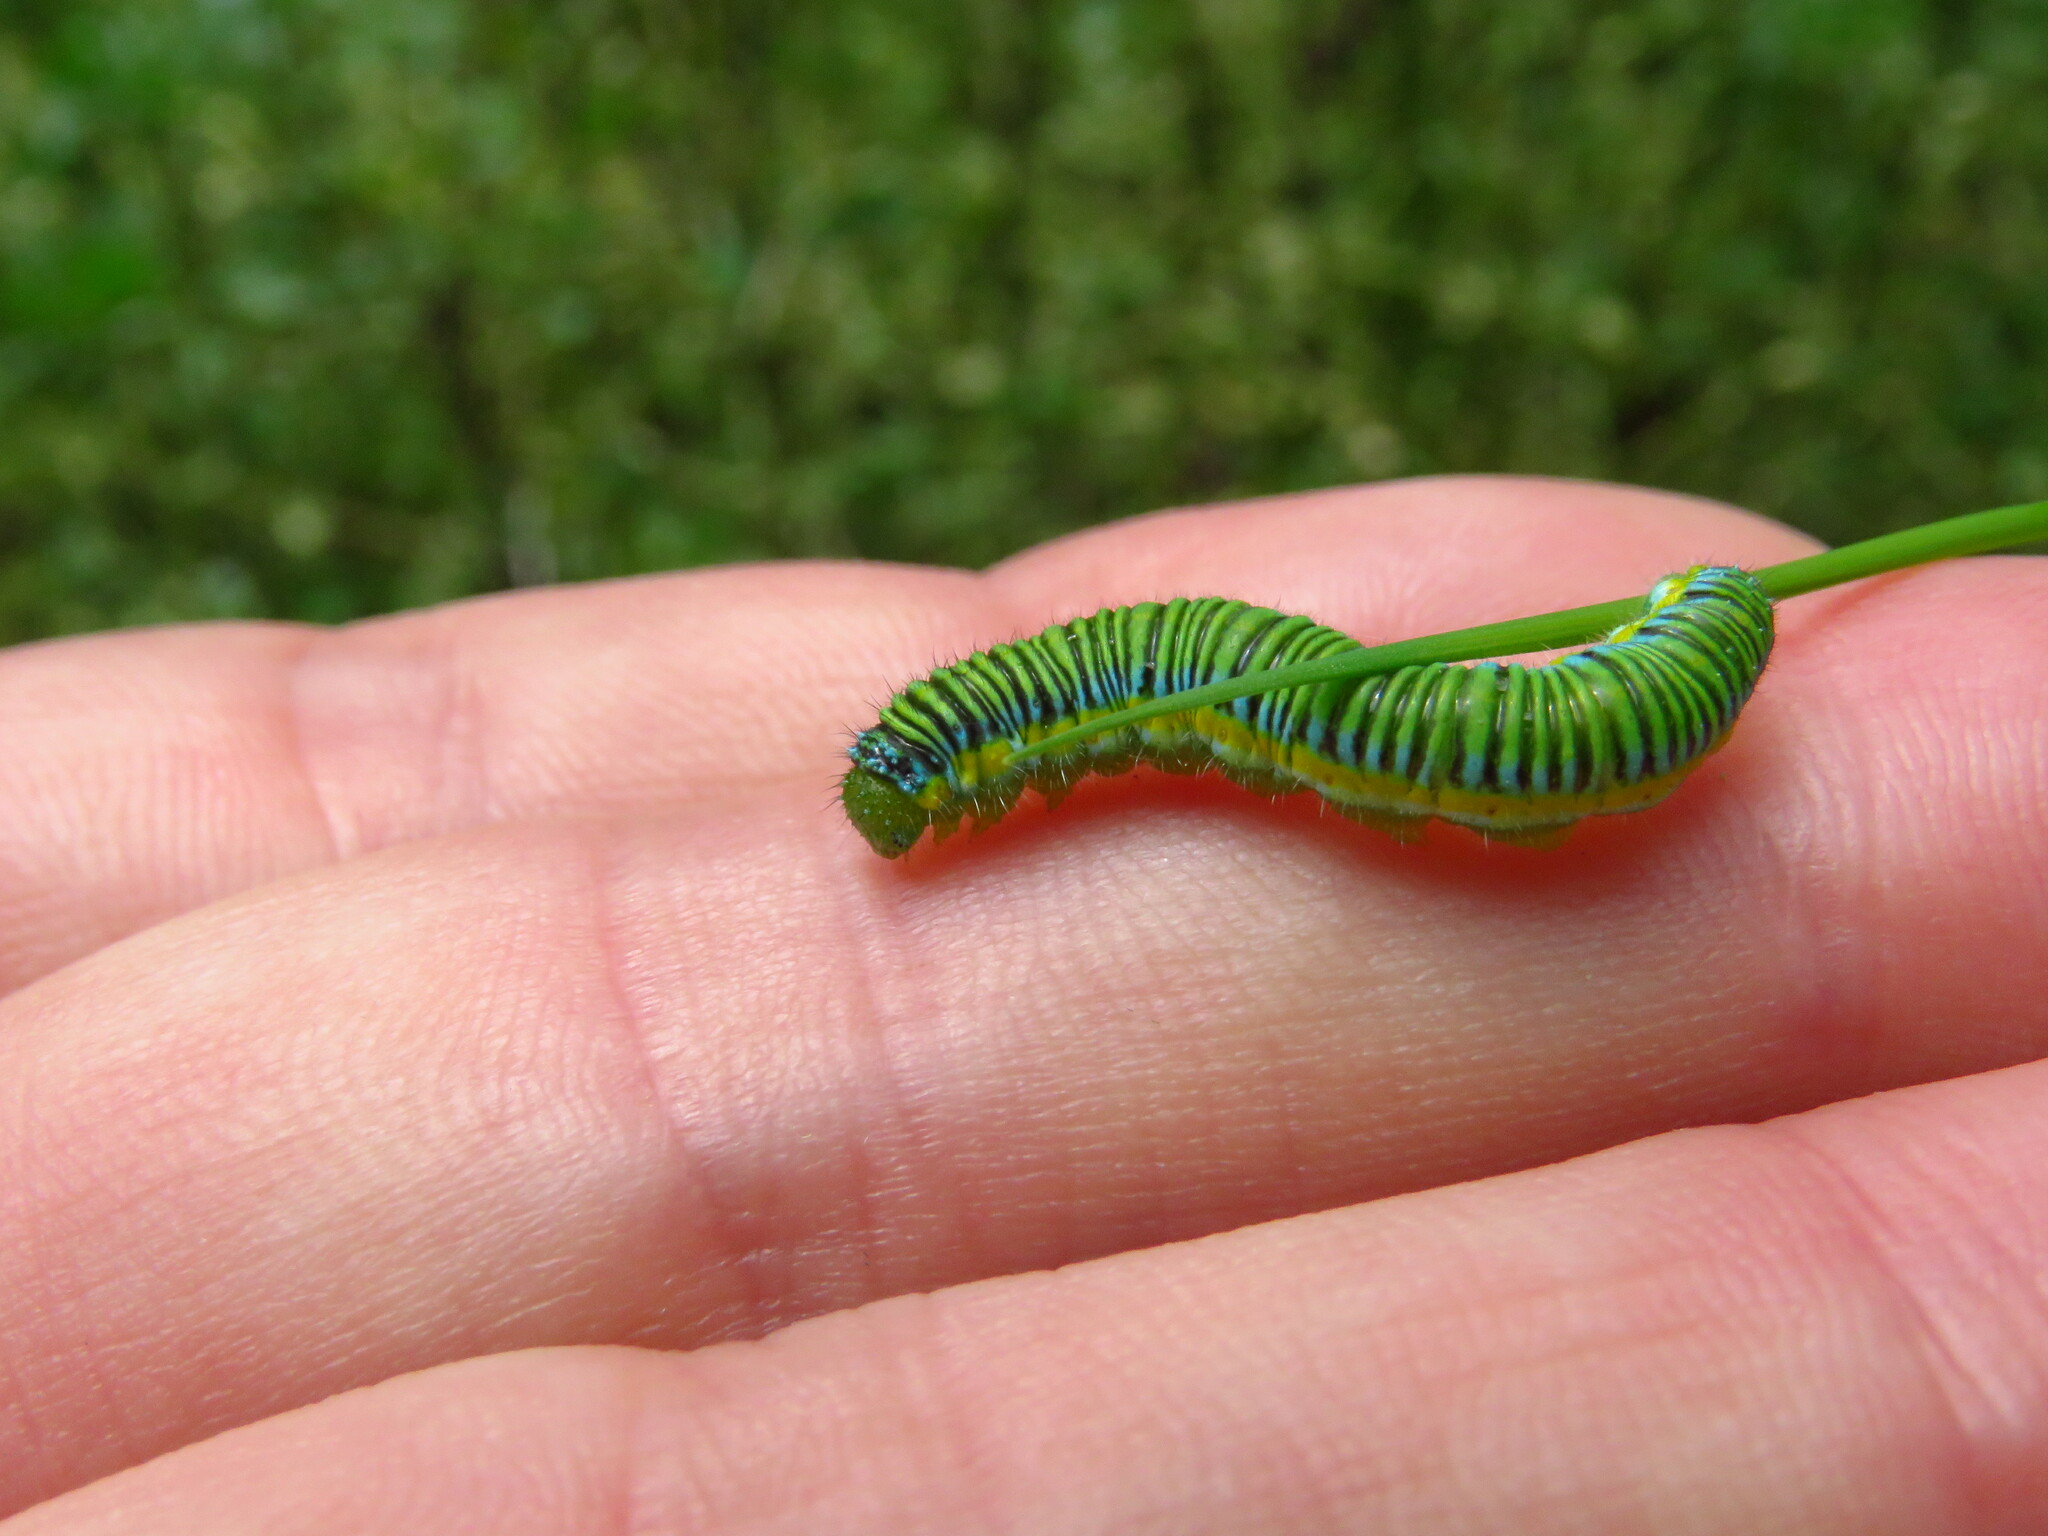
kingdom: Animalia
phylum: Arthropoda
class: Insecta
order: Lepidoptera
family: Pieridae
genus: Leptophobia
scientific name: Leptophobia aripa
